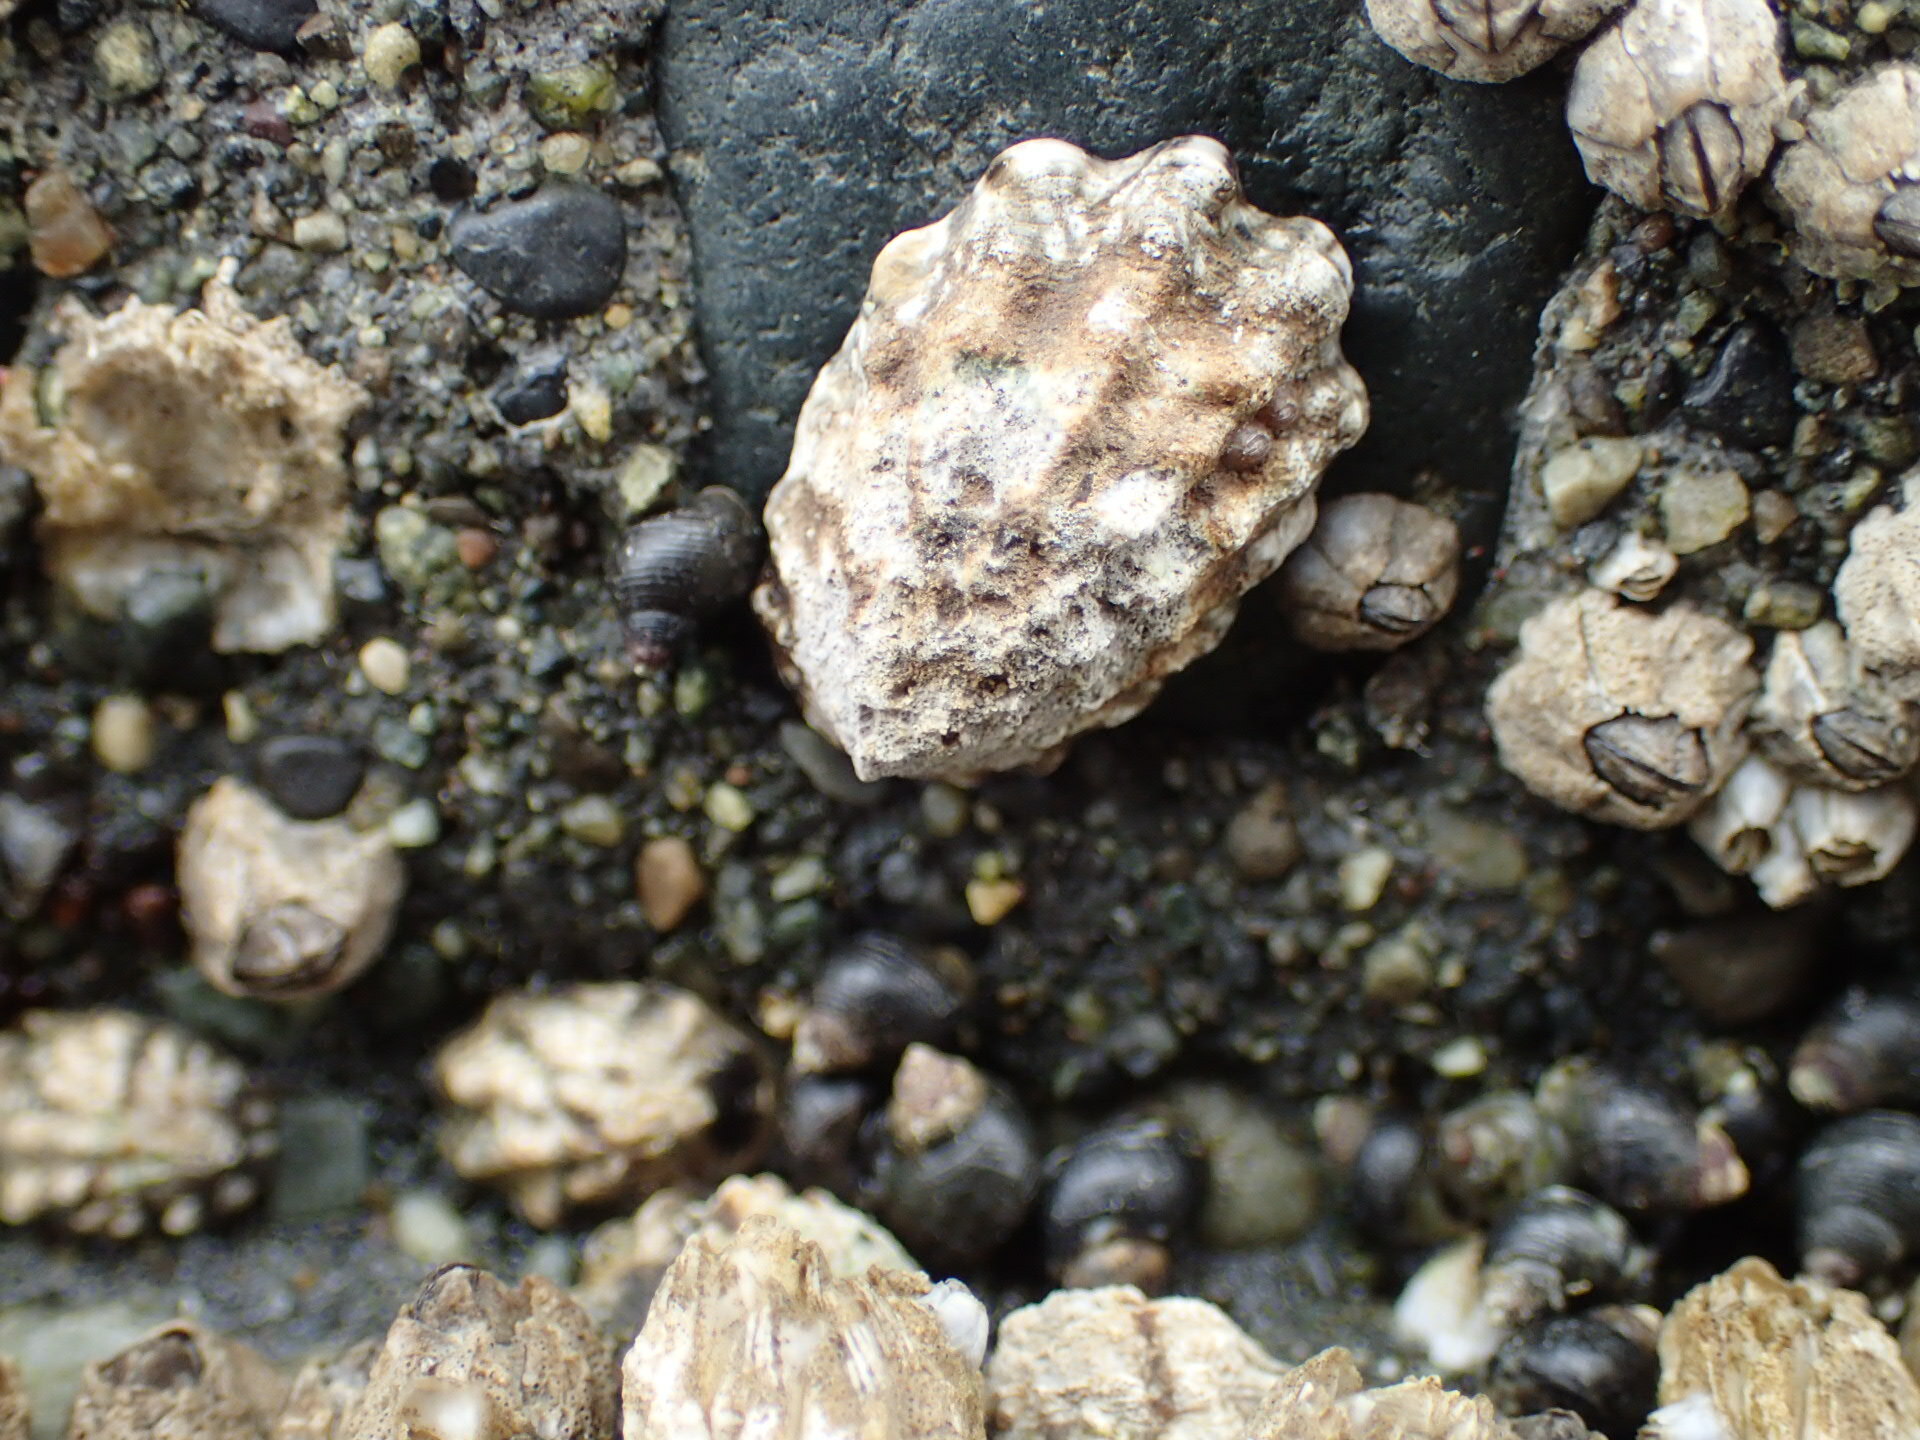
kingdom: Animalia
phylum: Mollusca
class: Gastropoda
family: Lottiidae
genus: Lottia
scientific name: Lottia digitalis
